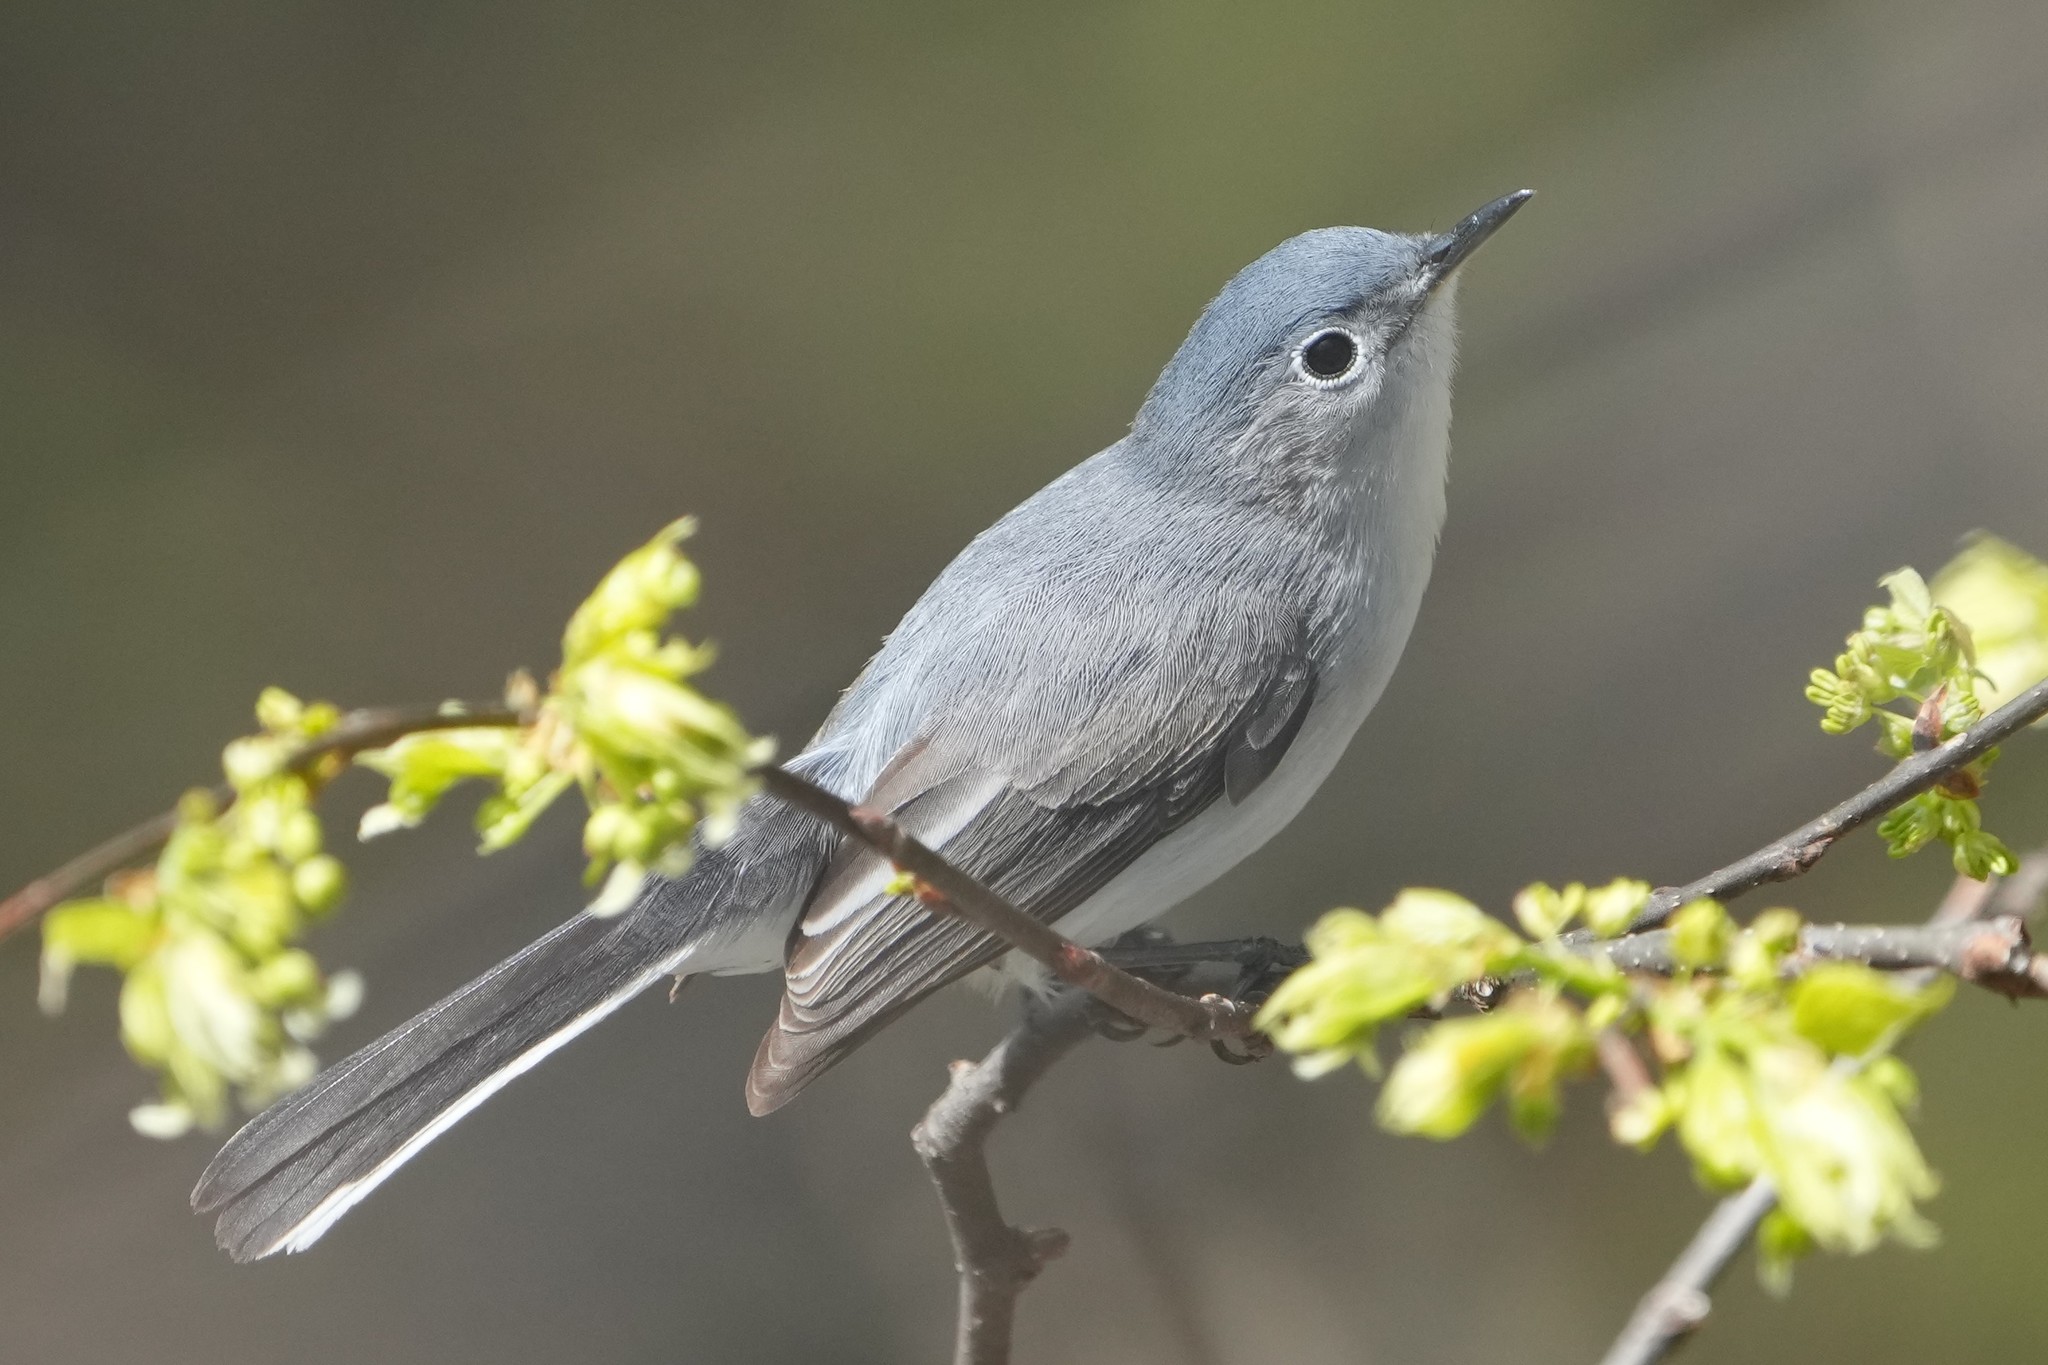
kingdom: Animalia
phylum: Chordata
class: Aves
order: Passeriformes
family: Polioptilidae
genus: Polioptila
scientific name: Polioptila caerulea
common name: Blue-gray gnatcatcher
